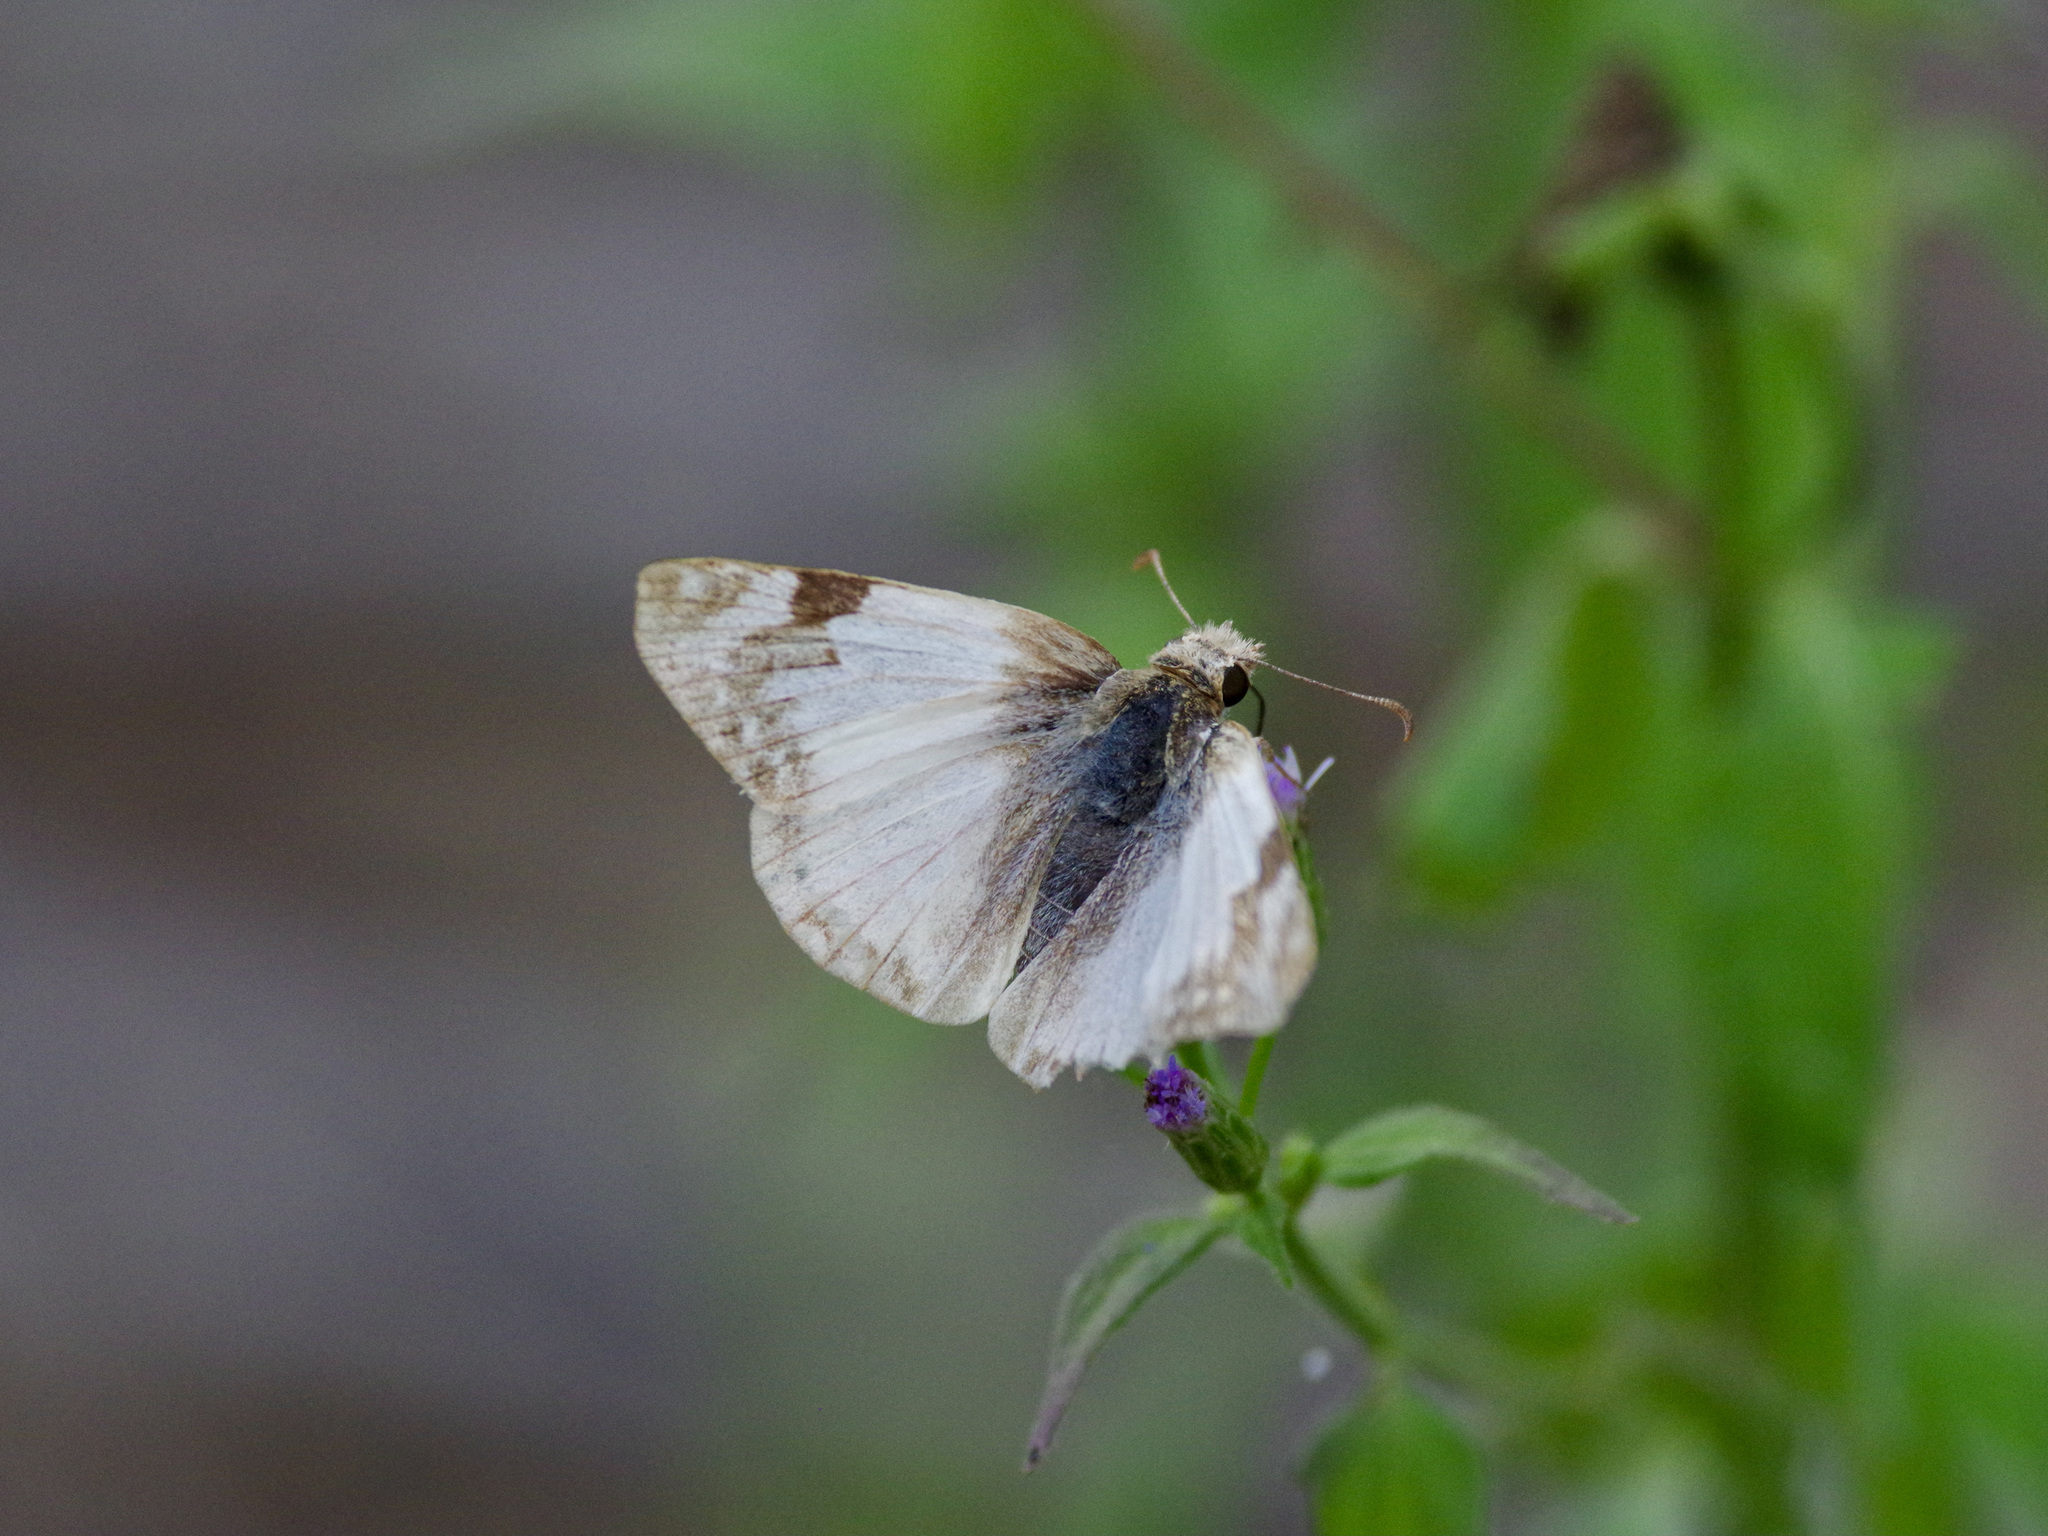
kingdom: Animalia
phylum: Arthropoda
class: Insecta
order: Lepidoptera
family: Hesperiidae
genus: Heliopetes
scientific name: Heliopetes laviana
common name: Laviana white-skipper
